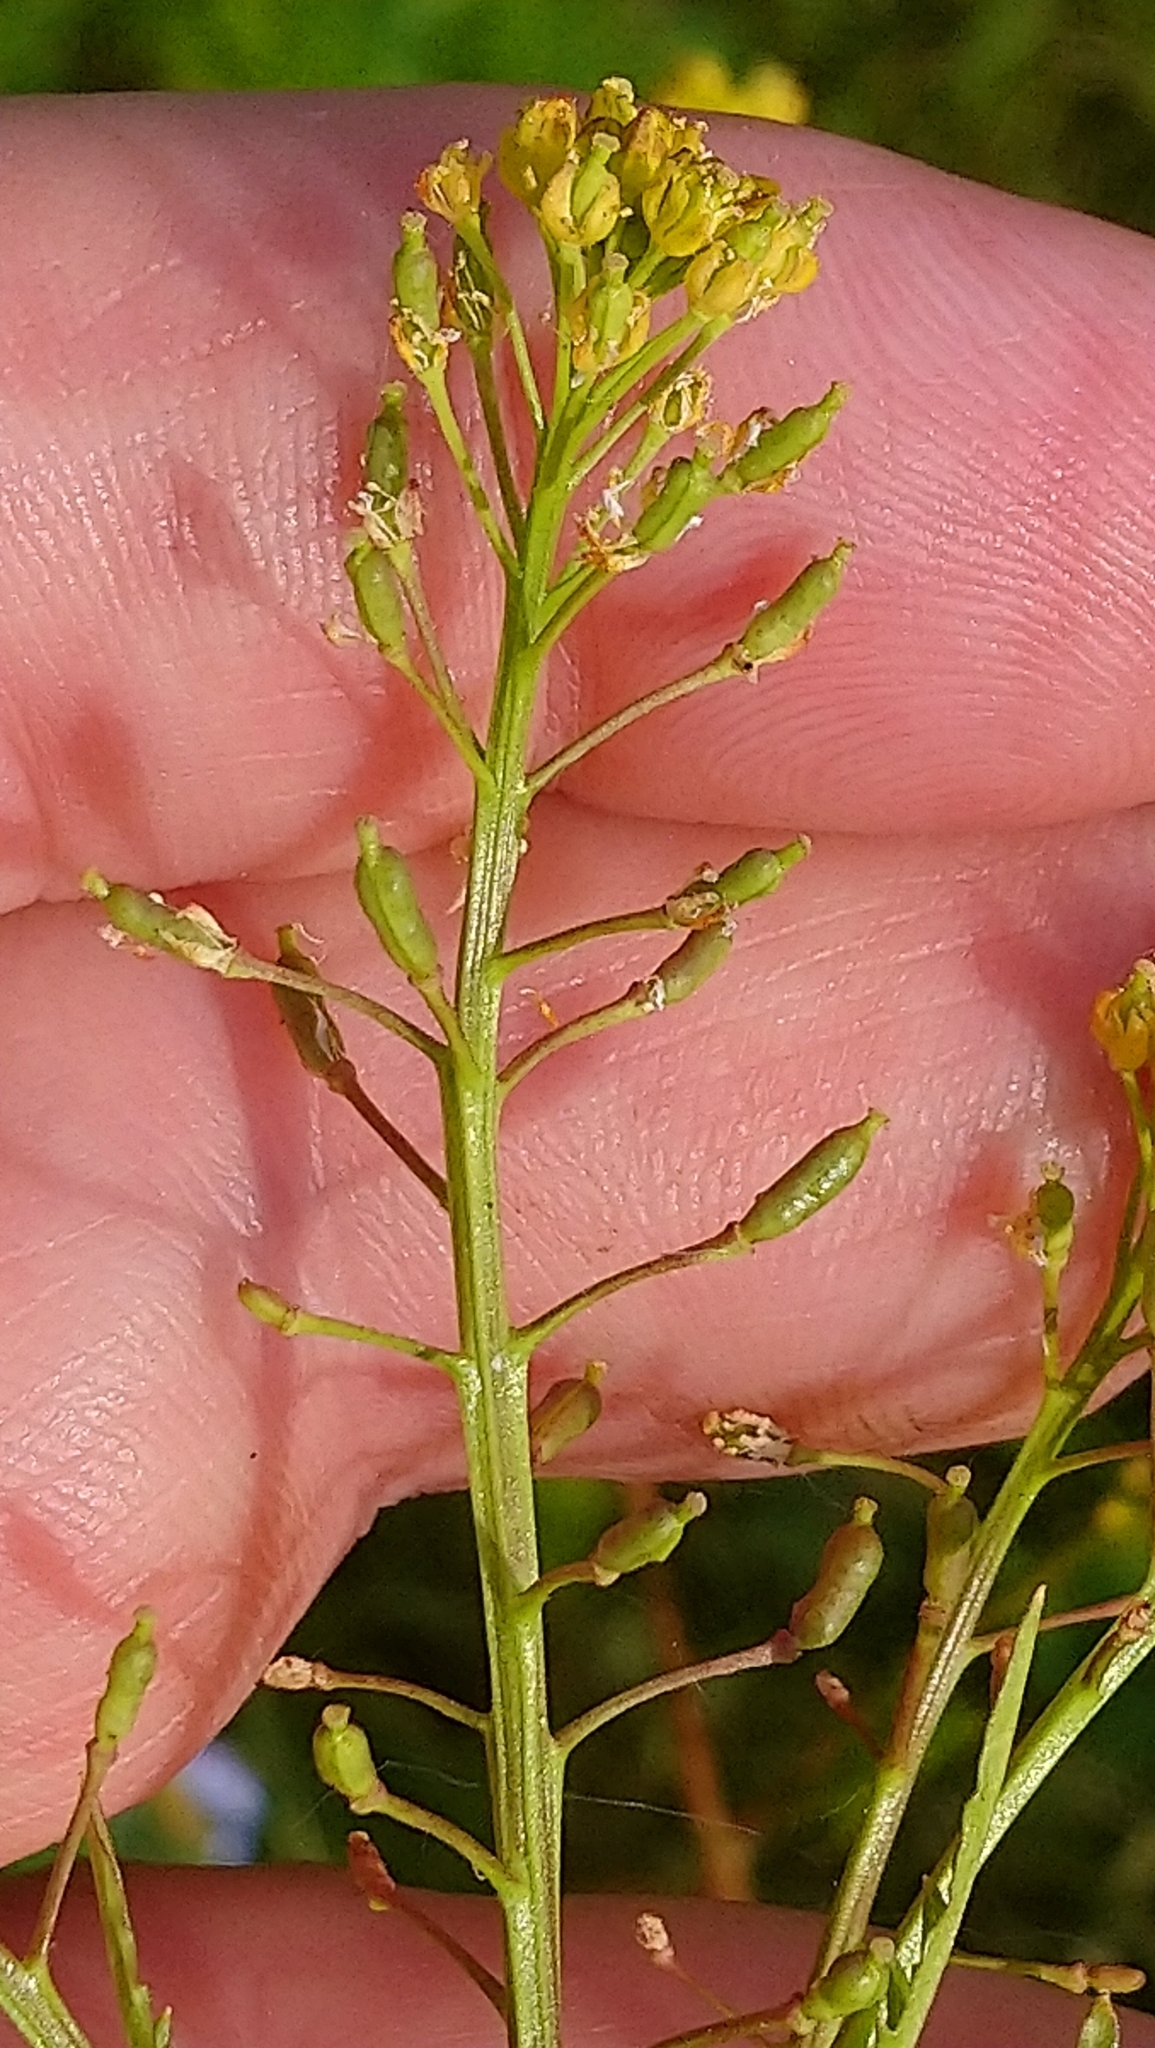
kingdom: Plantae
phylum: Tracheophyta
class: Magnoliopsida
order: Brassicales
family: Brassicaceae
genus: Rorippa
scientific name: Rorippa palustris
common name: Marsh yellow-cress
